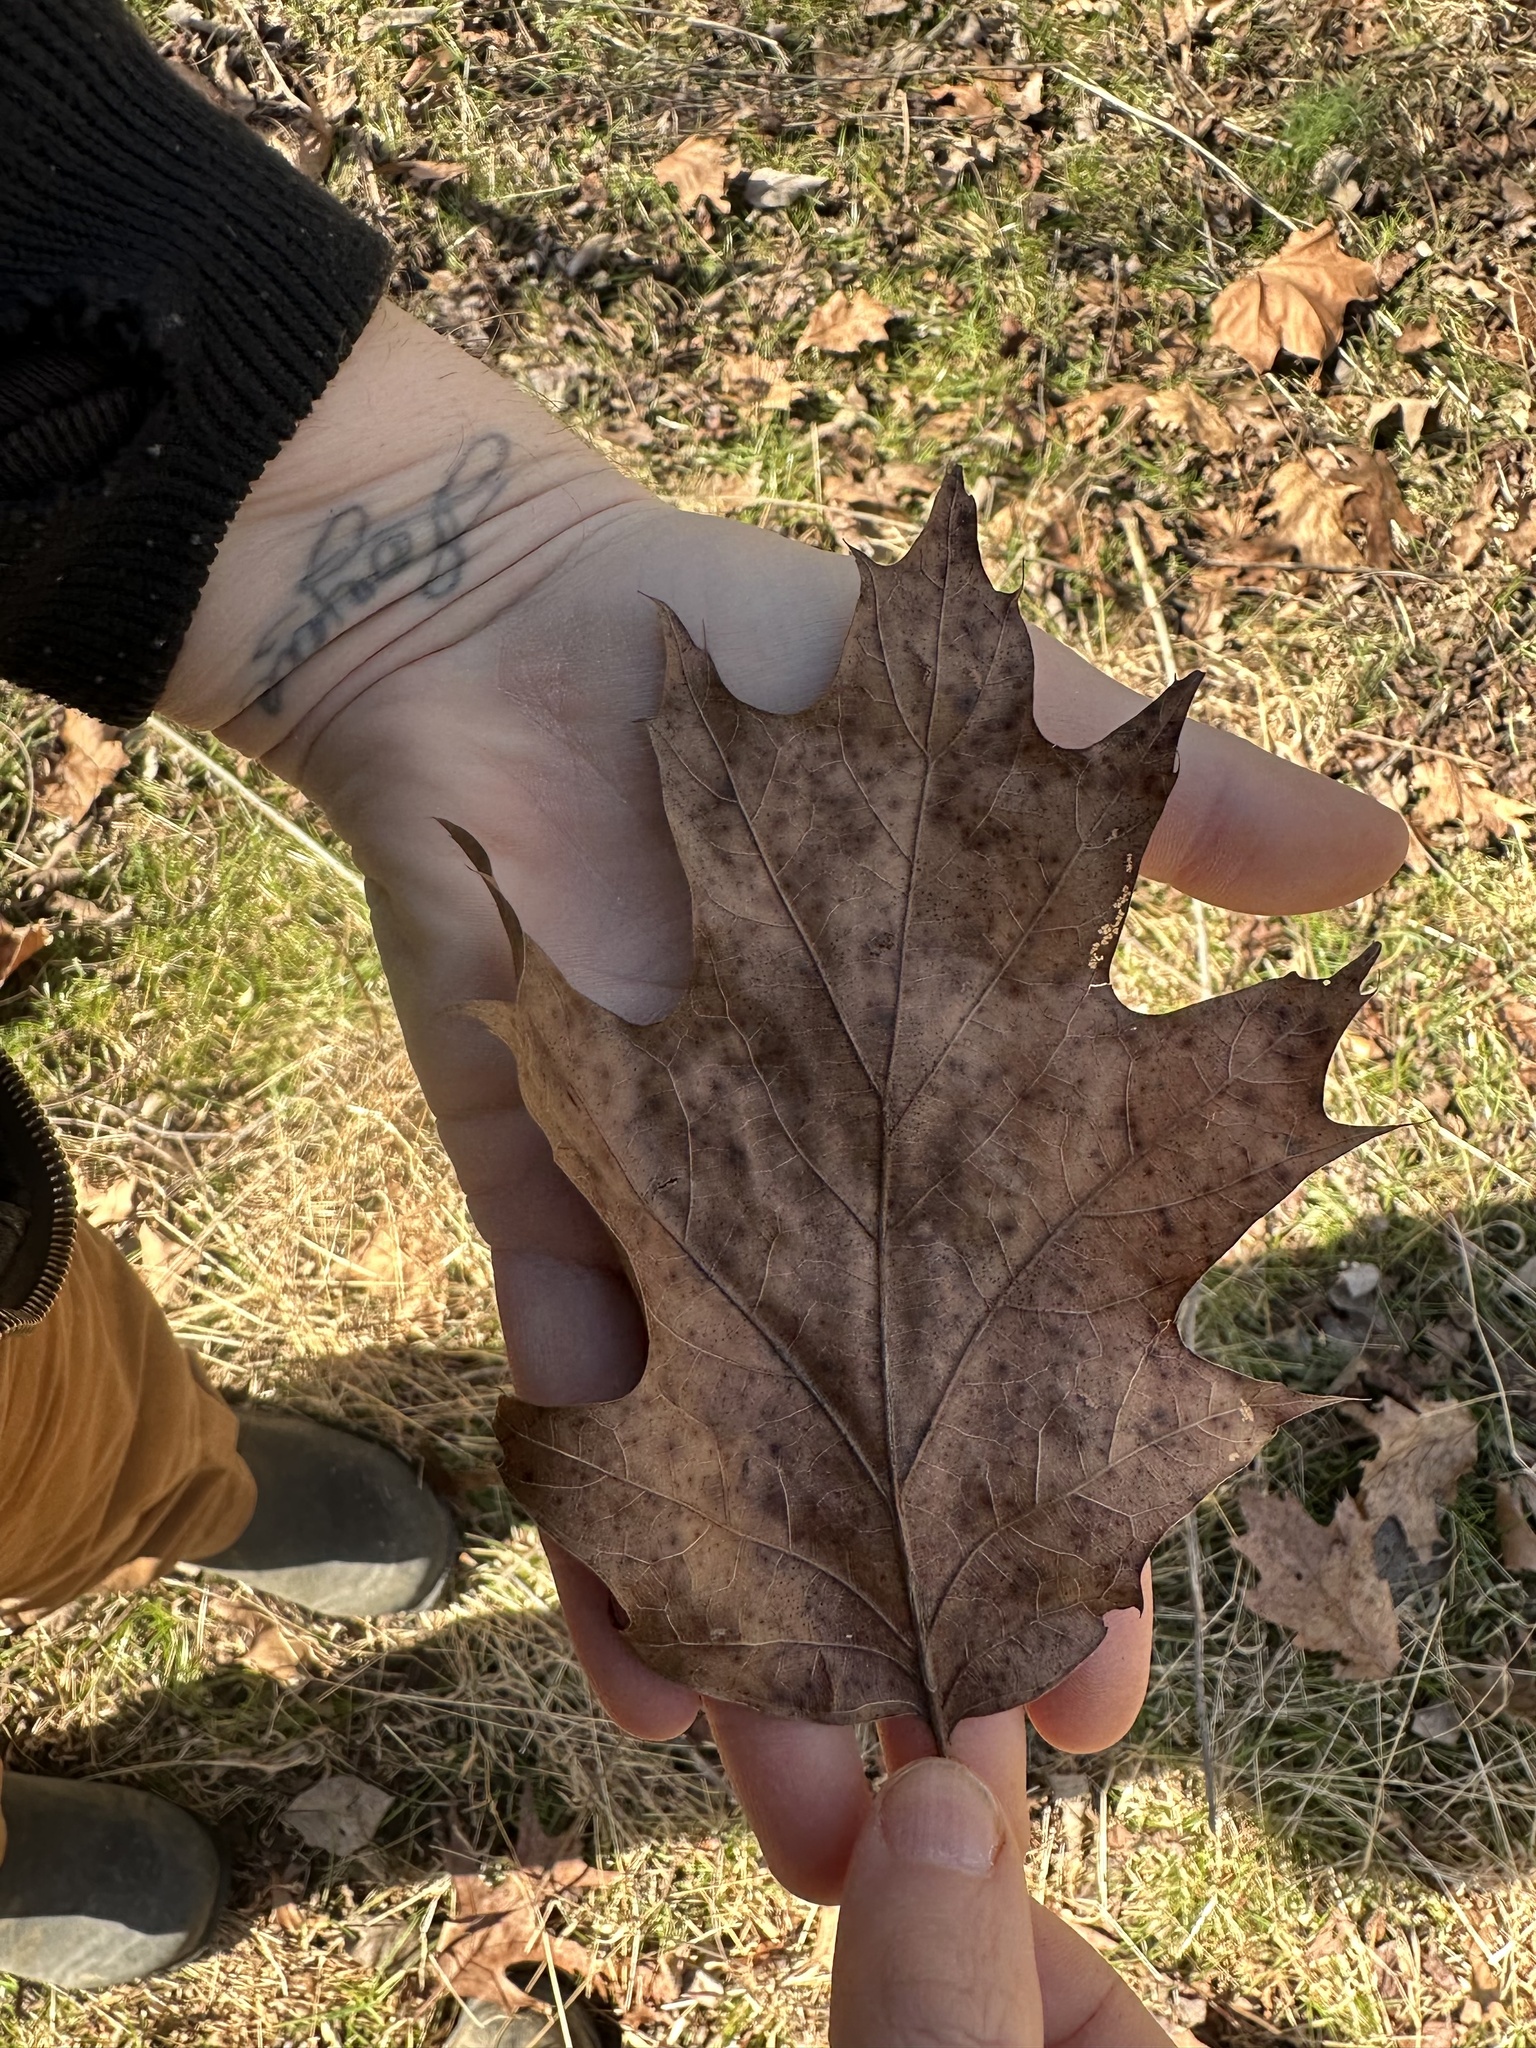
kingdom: Plantae
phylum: Tracheophyta
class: Magnoliopsida
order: Fagales
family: Fagaceae
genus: Quercus
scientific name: Quercus rubra
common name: Red oak
